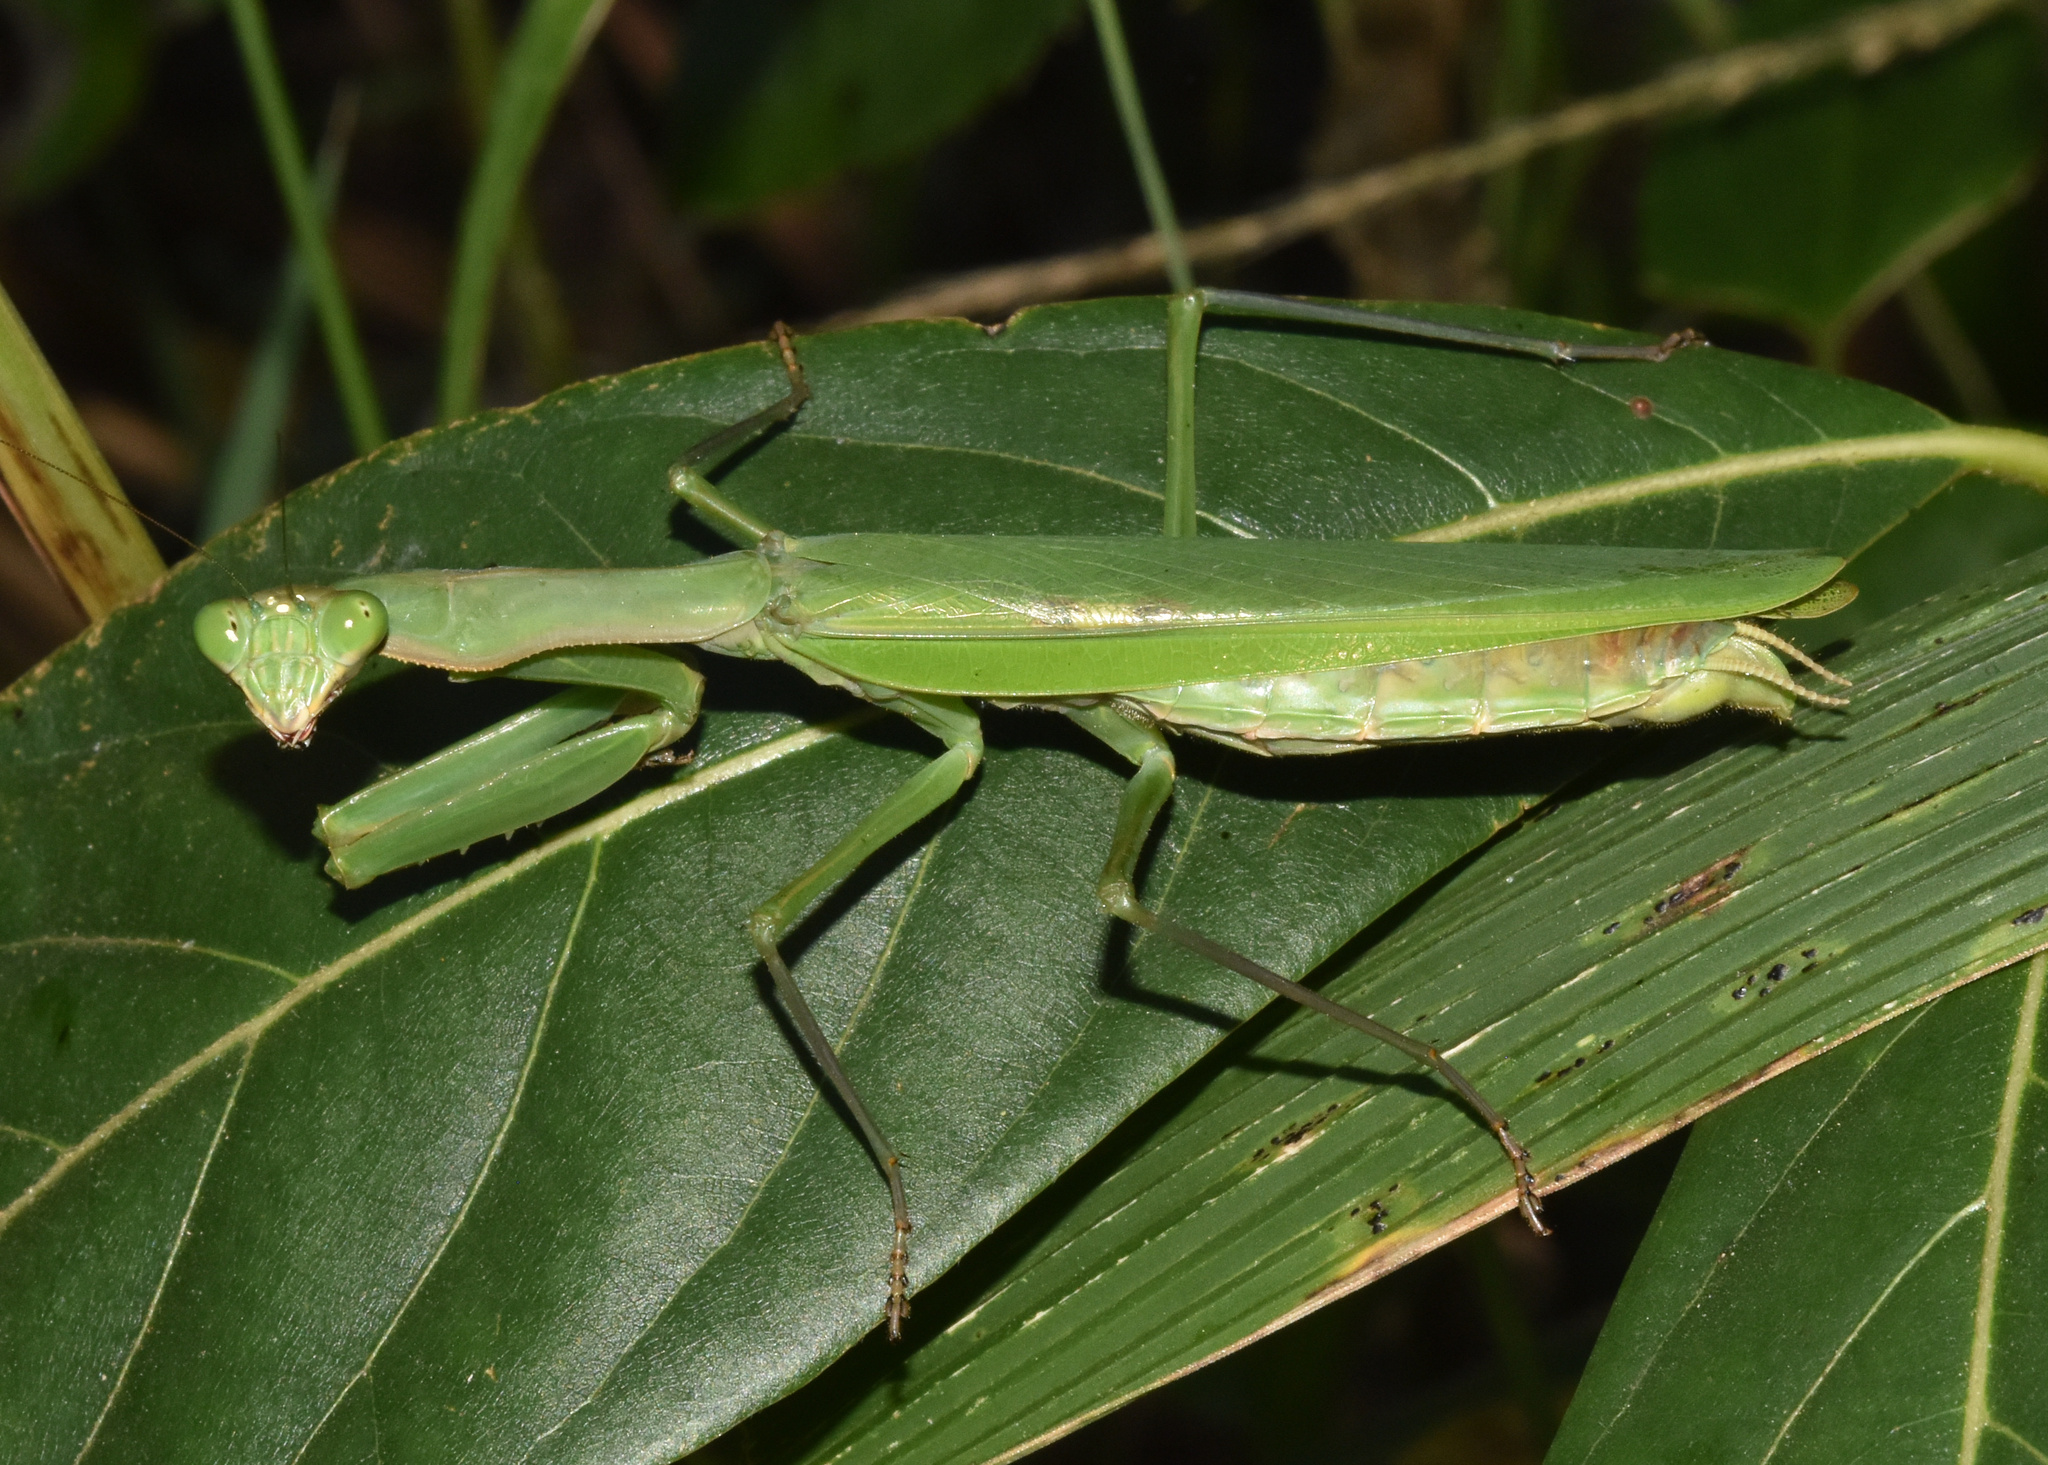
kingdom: Animalia
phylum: Arthropoda
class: Insecta
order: Mantodea
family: Mantidae
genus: Polyspilota
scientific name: Polyspilota aeruginosa
